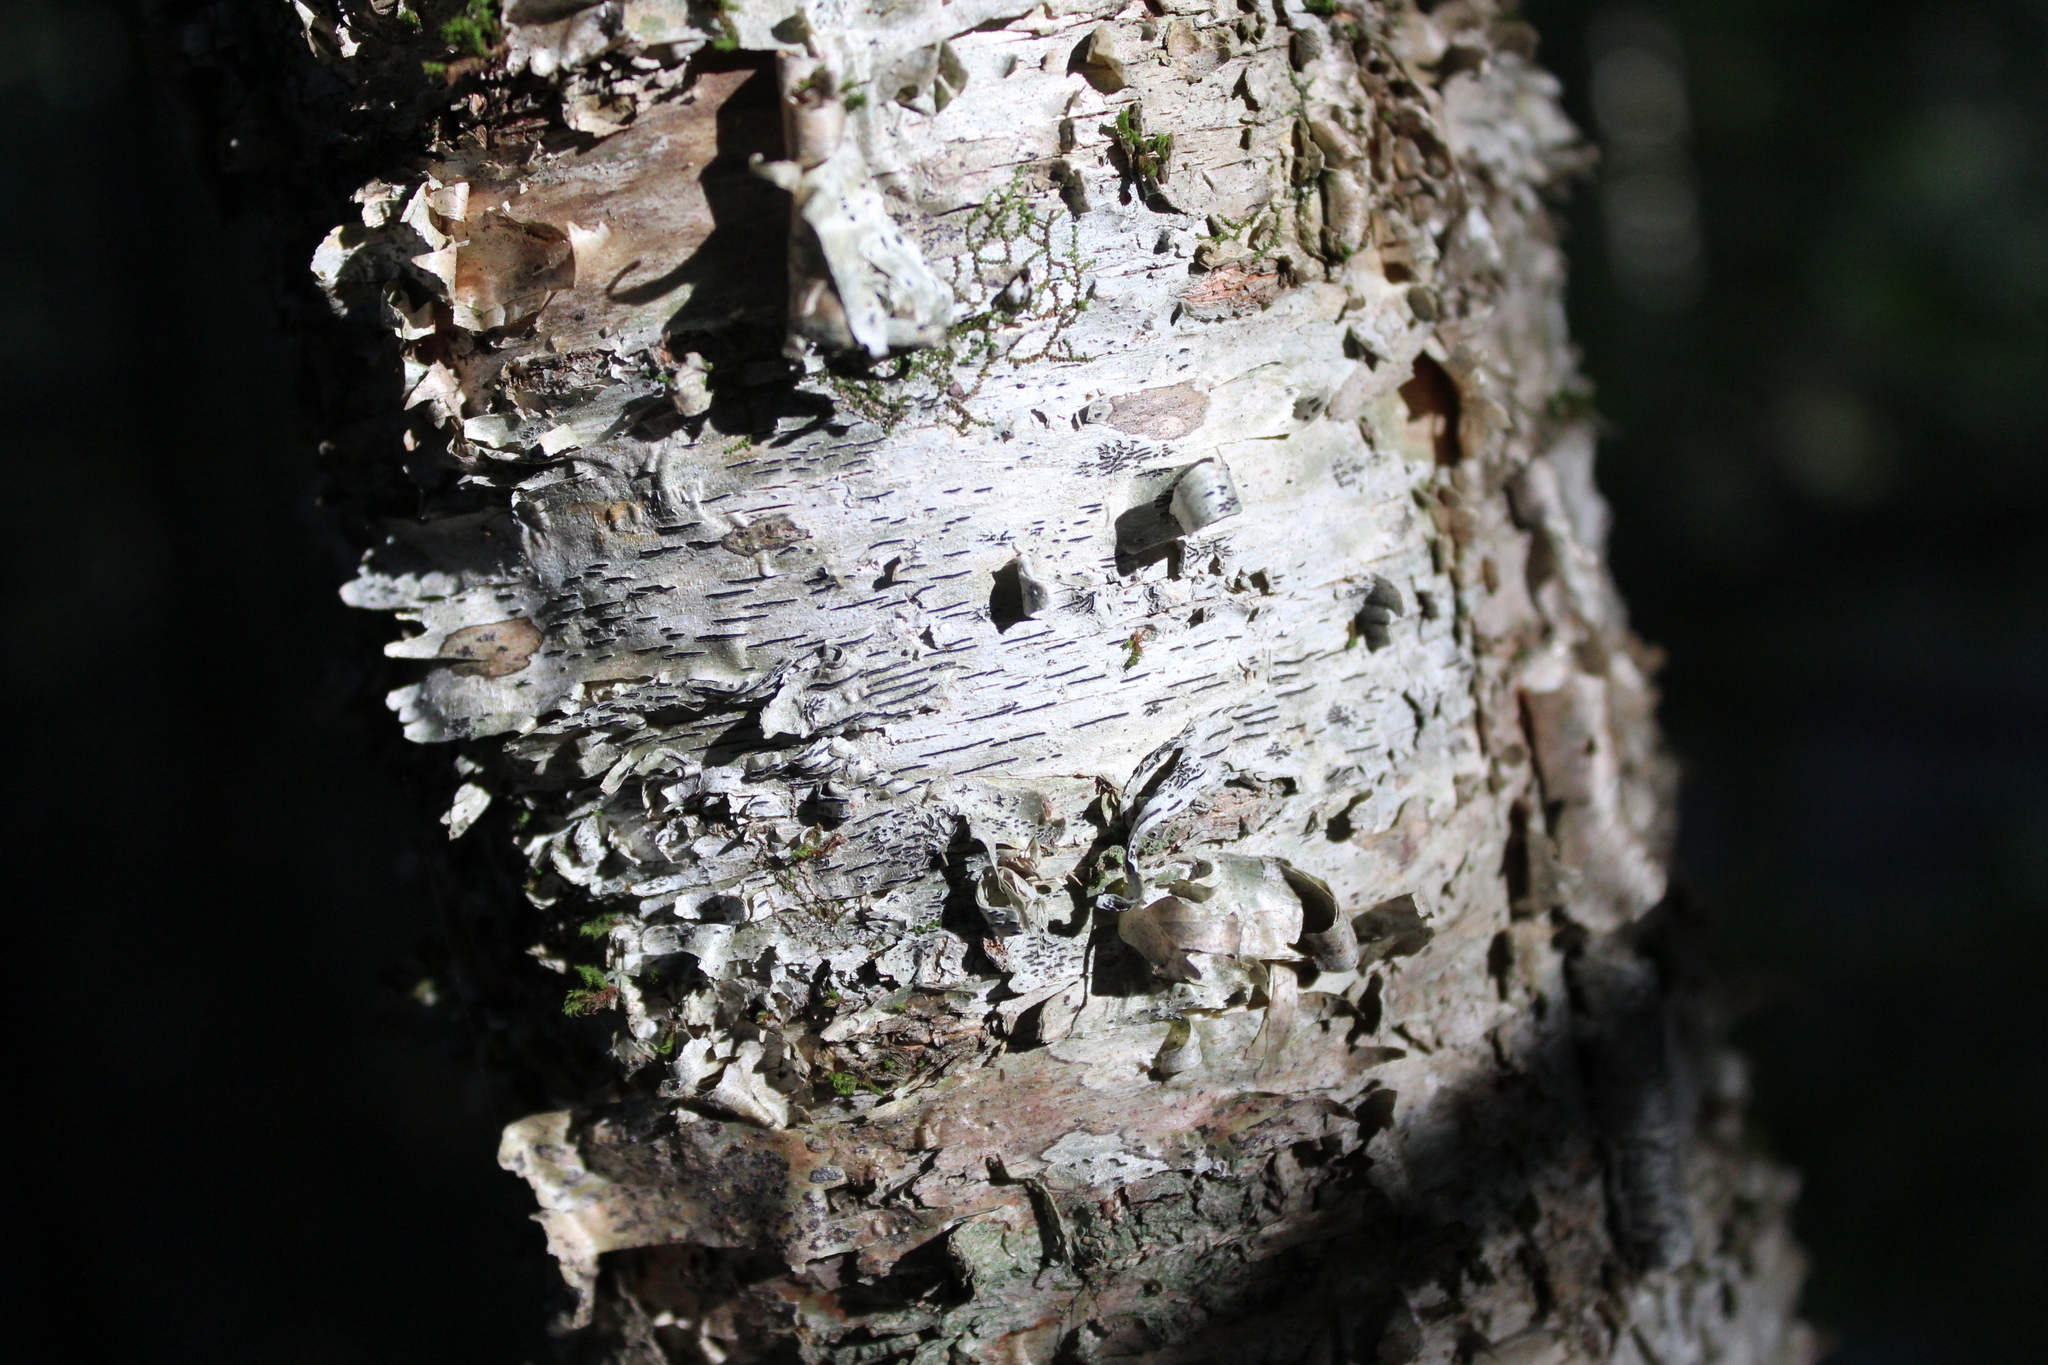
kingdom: Fungi
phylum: Ascomycota
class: Lecanoromycetes
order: Ostropales
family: Graphidaceae
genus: Graphis
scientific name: Graphis scripta
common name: Script lichen
